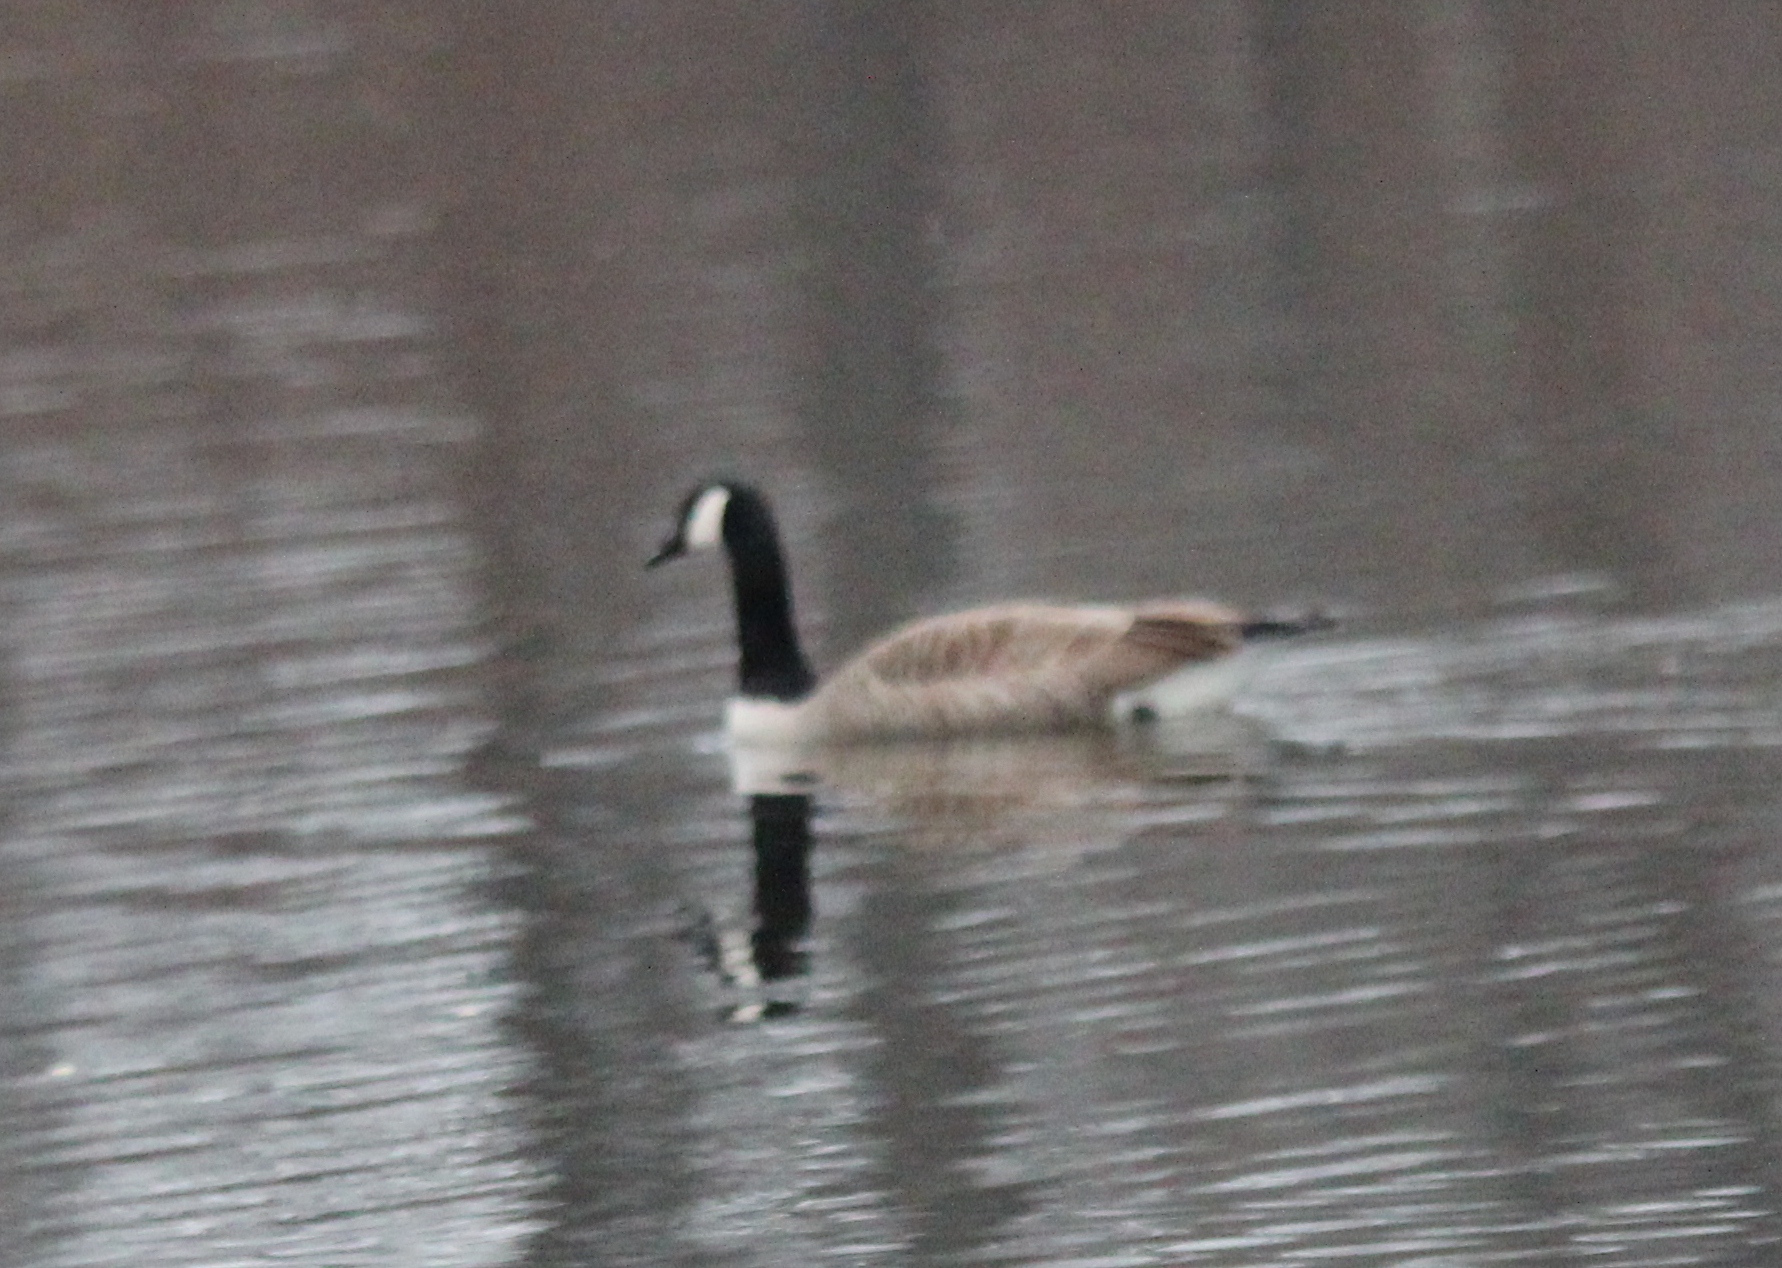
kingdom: Animalia
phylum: Chordata
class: Aves
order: Anseriformes
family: Anatidae
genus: Branta
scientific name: Branta canadensis
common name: Canada goose
